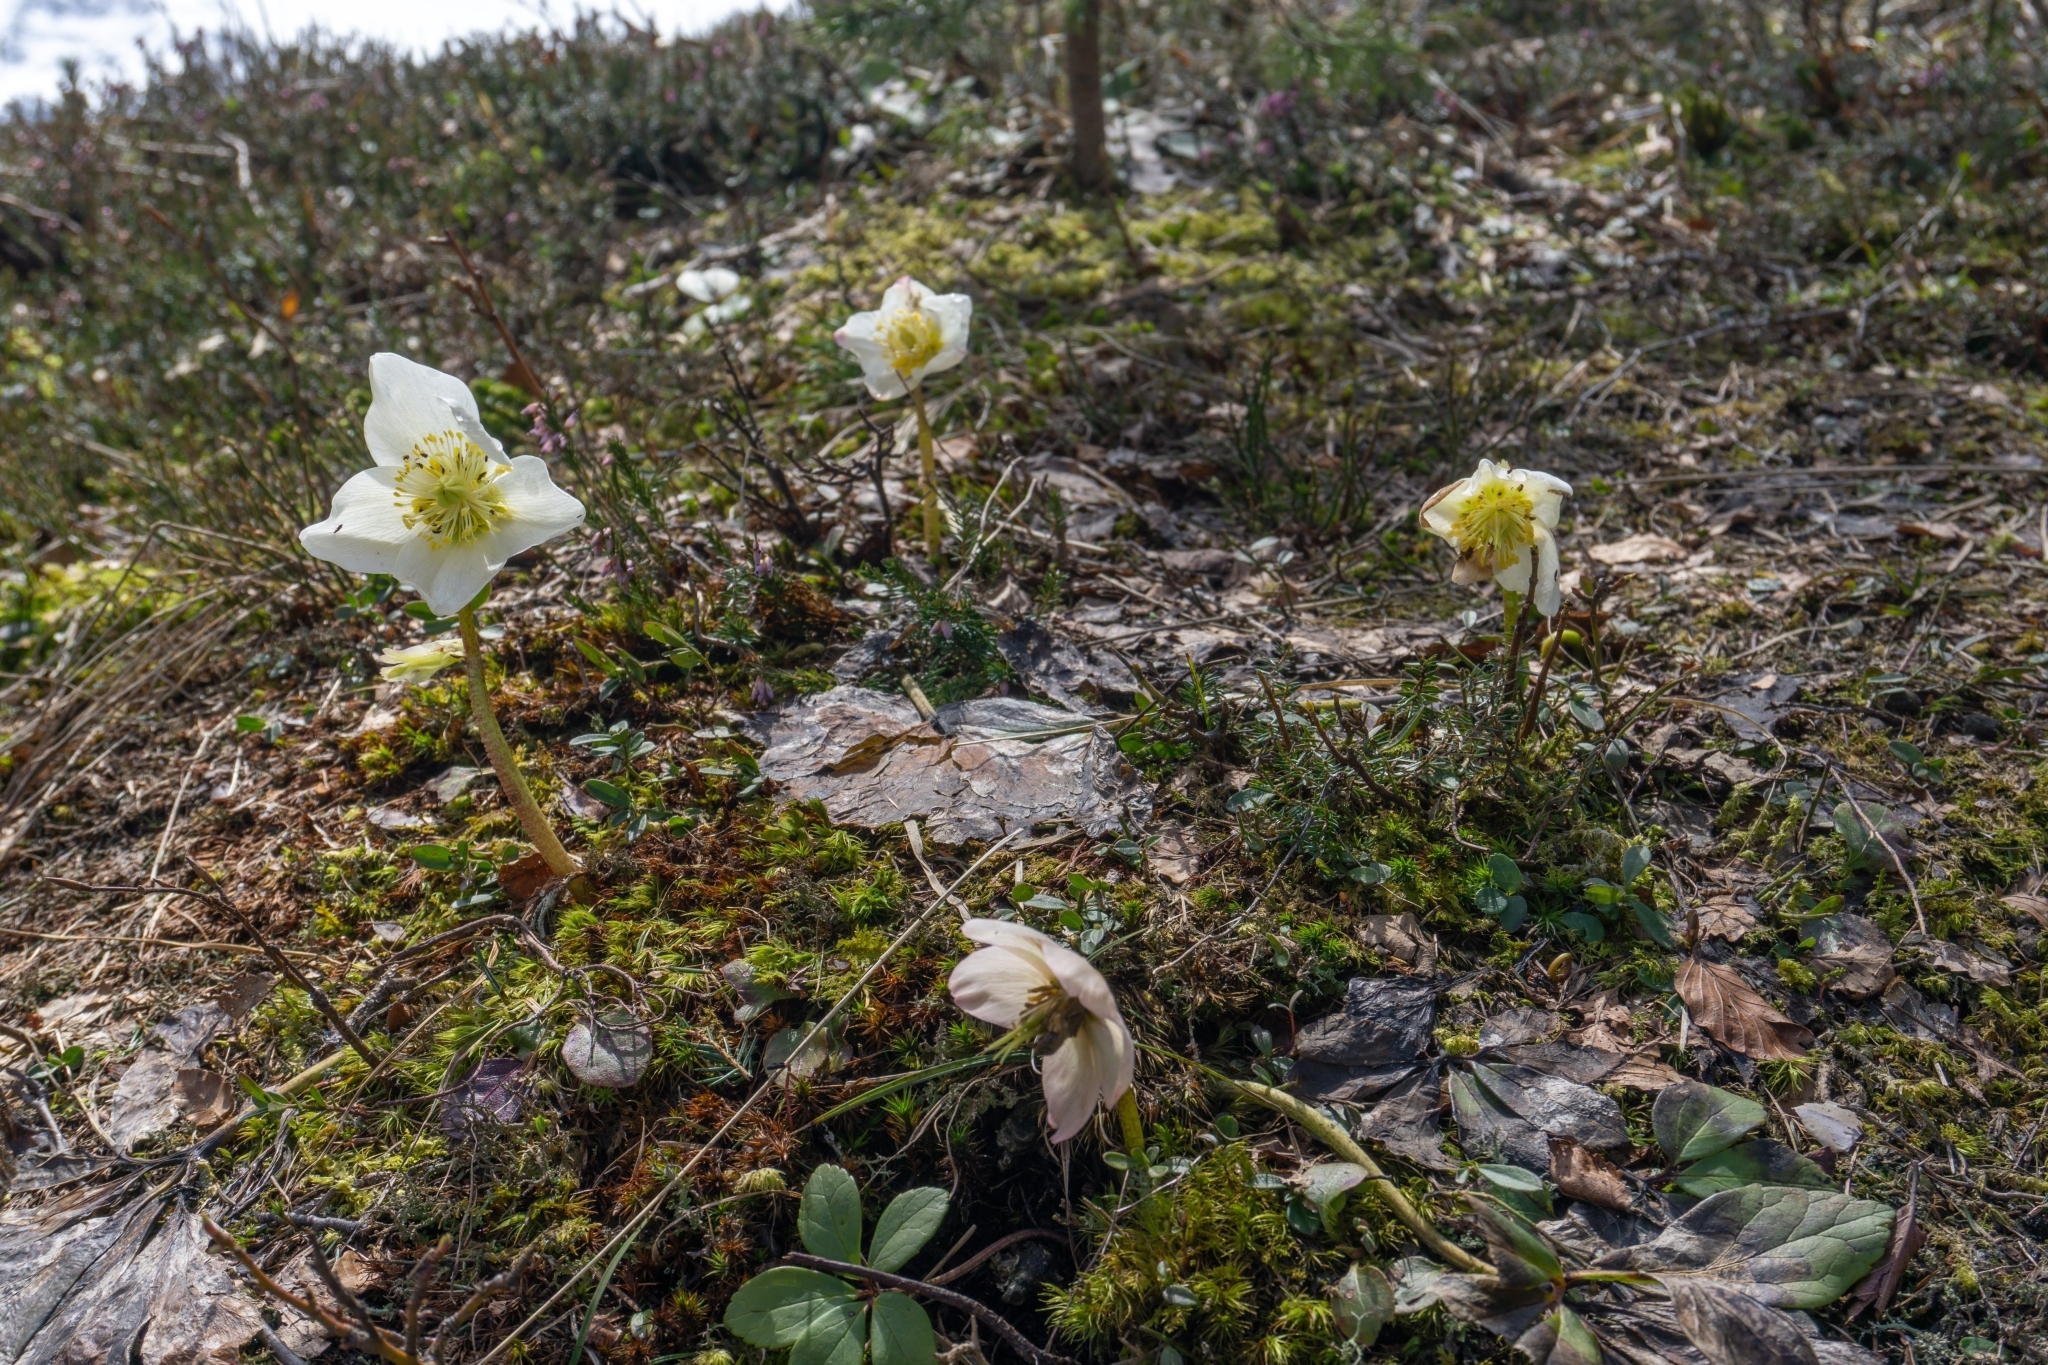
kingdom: Plantae
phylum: Tracheophyta
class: Magnoliopsida
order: Ranunculales
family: Ranunculaceae
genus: Pulsatilla
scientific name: Pulsatilla alpina
